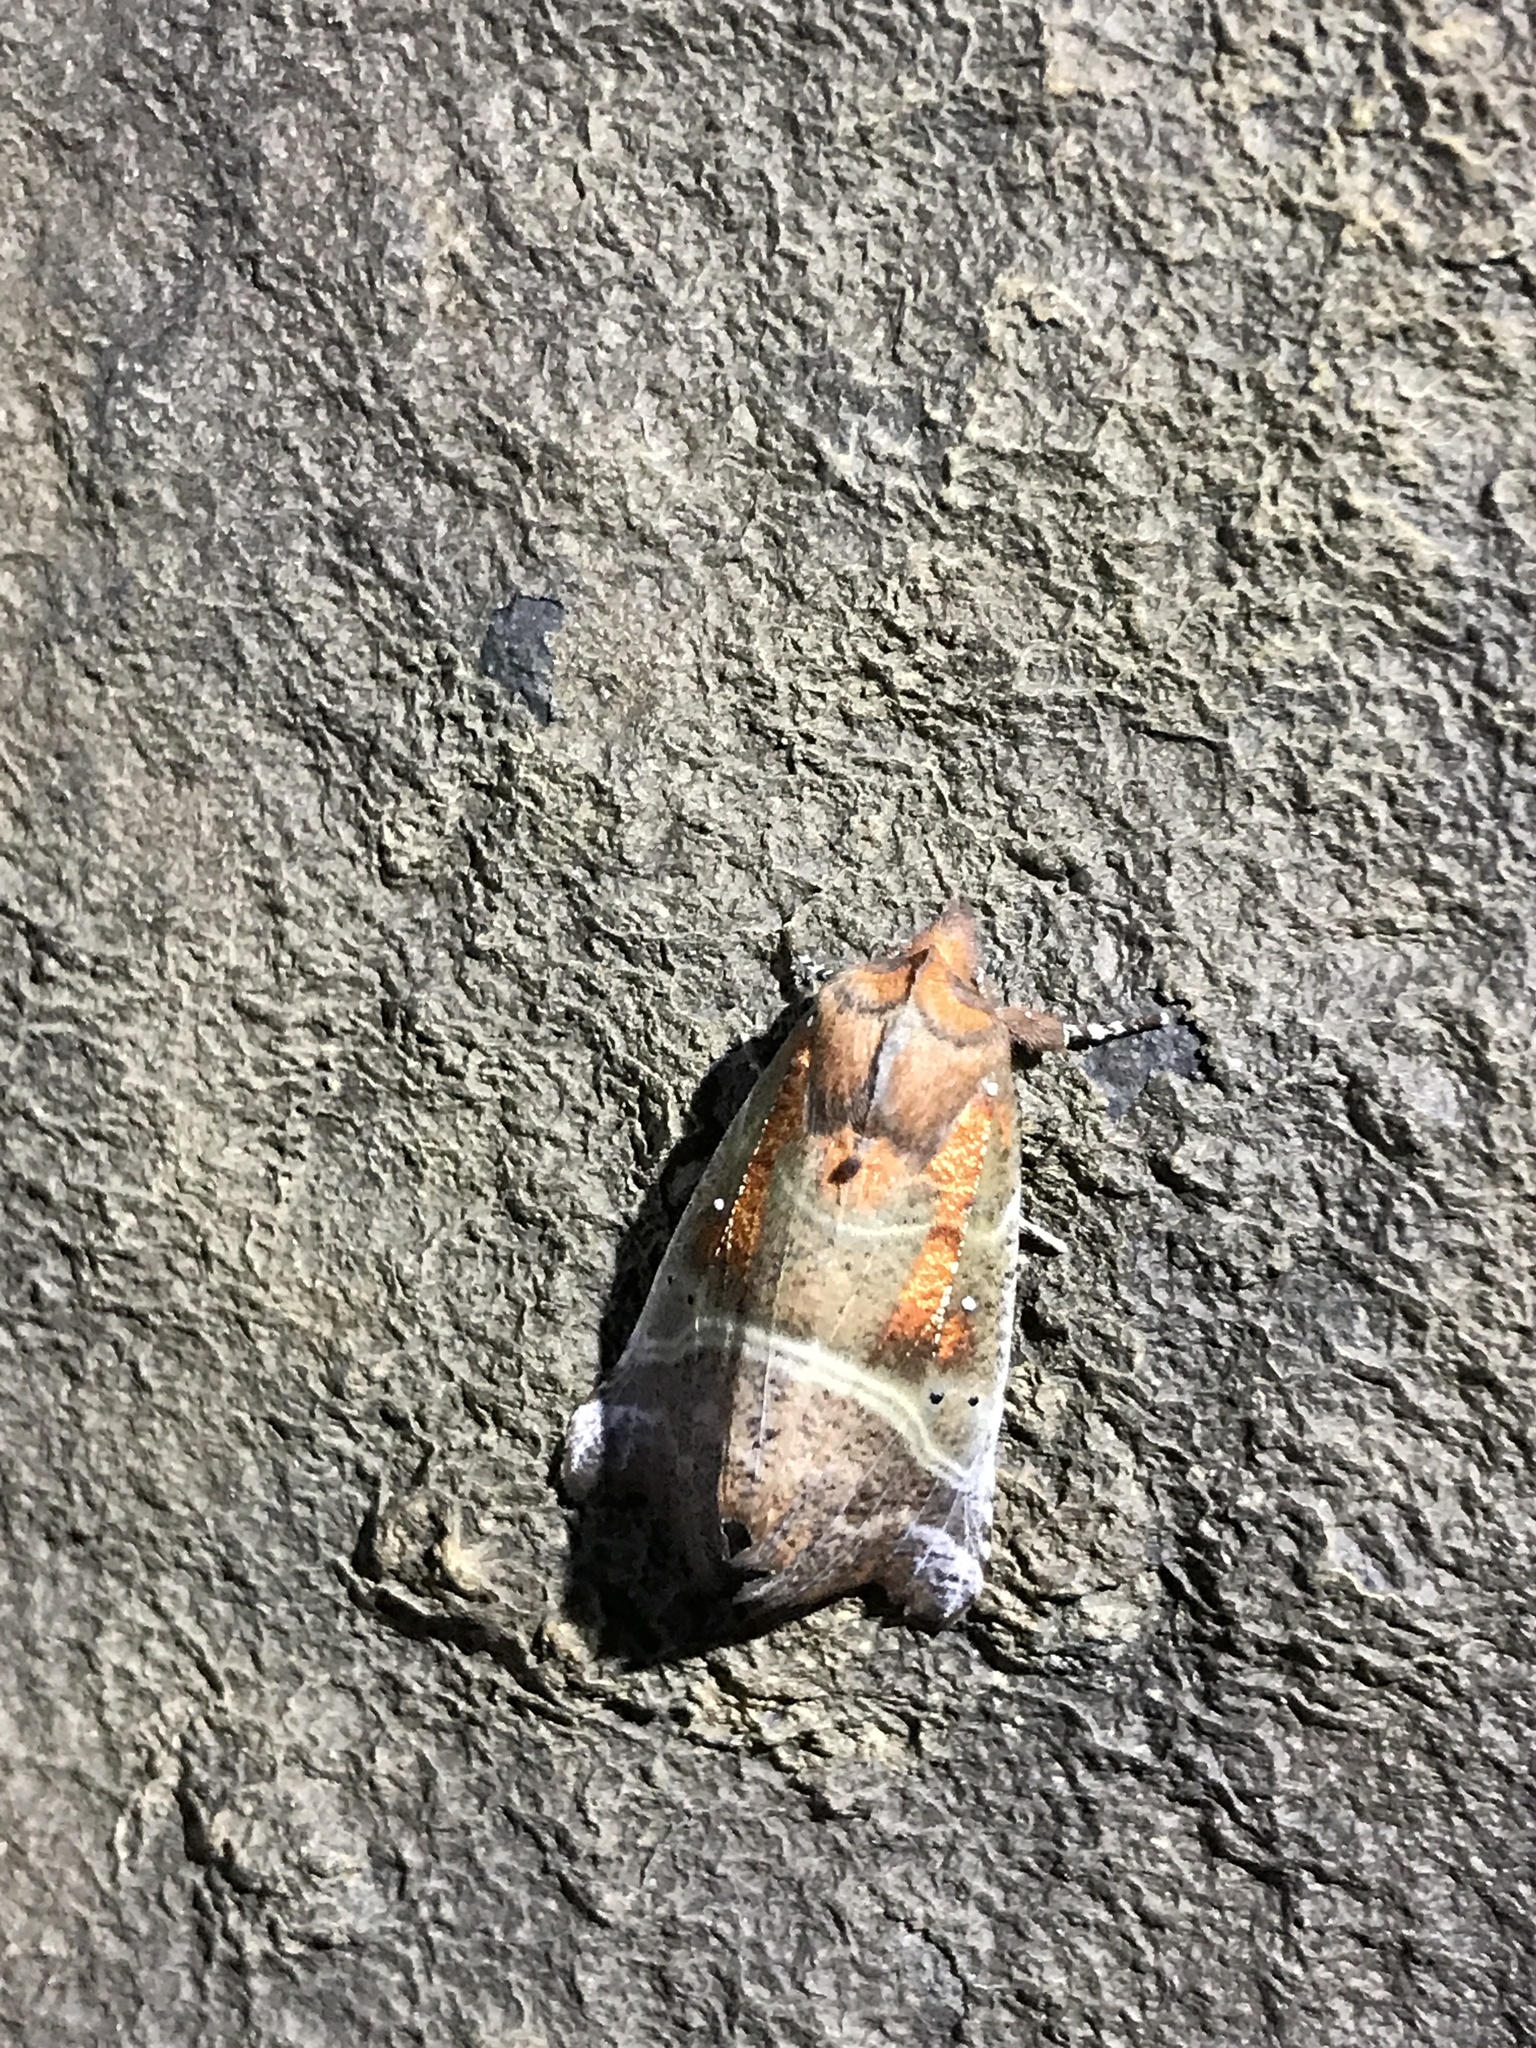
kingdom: Animalia
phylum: Arthropoda
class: Insecta
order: Lepidoptera
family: Erebidae
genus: Scoliopteryx
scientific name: Scoliopteryx libatrix
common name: Herald
